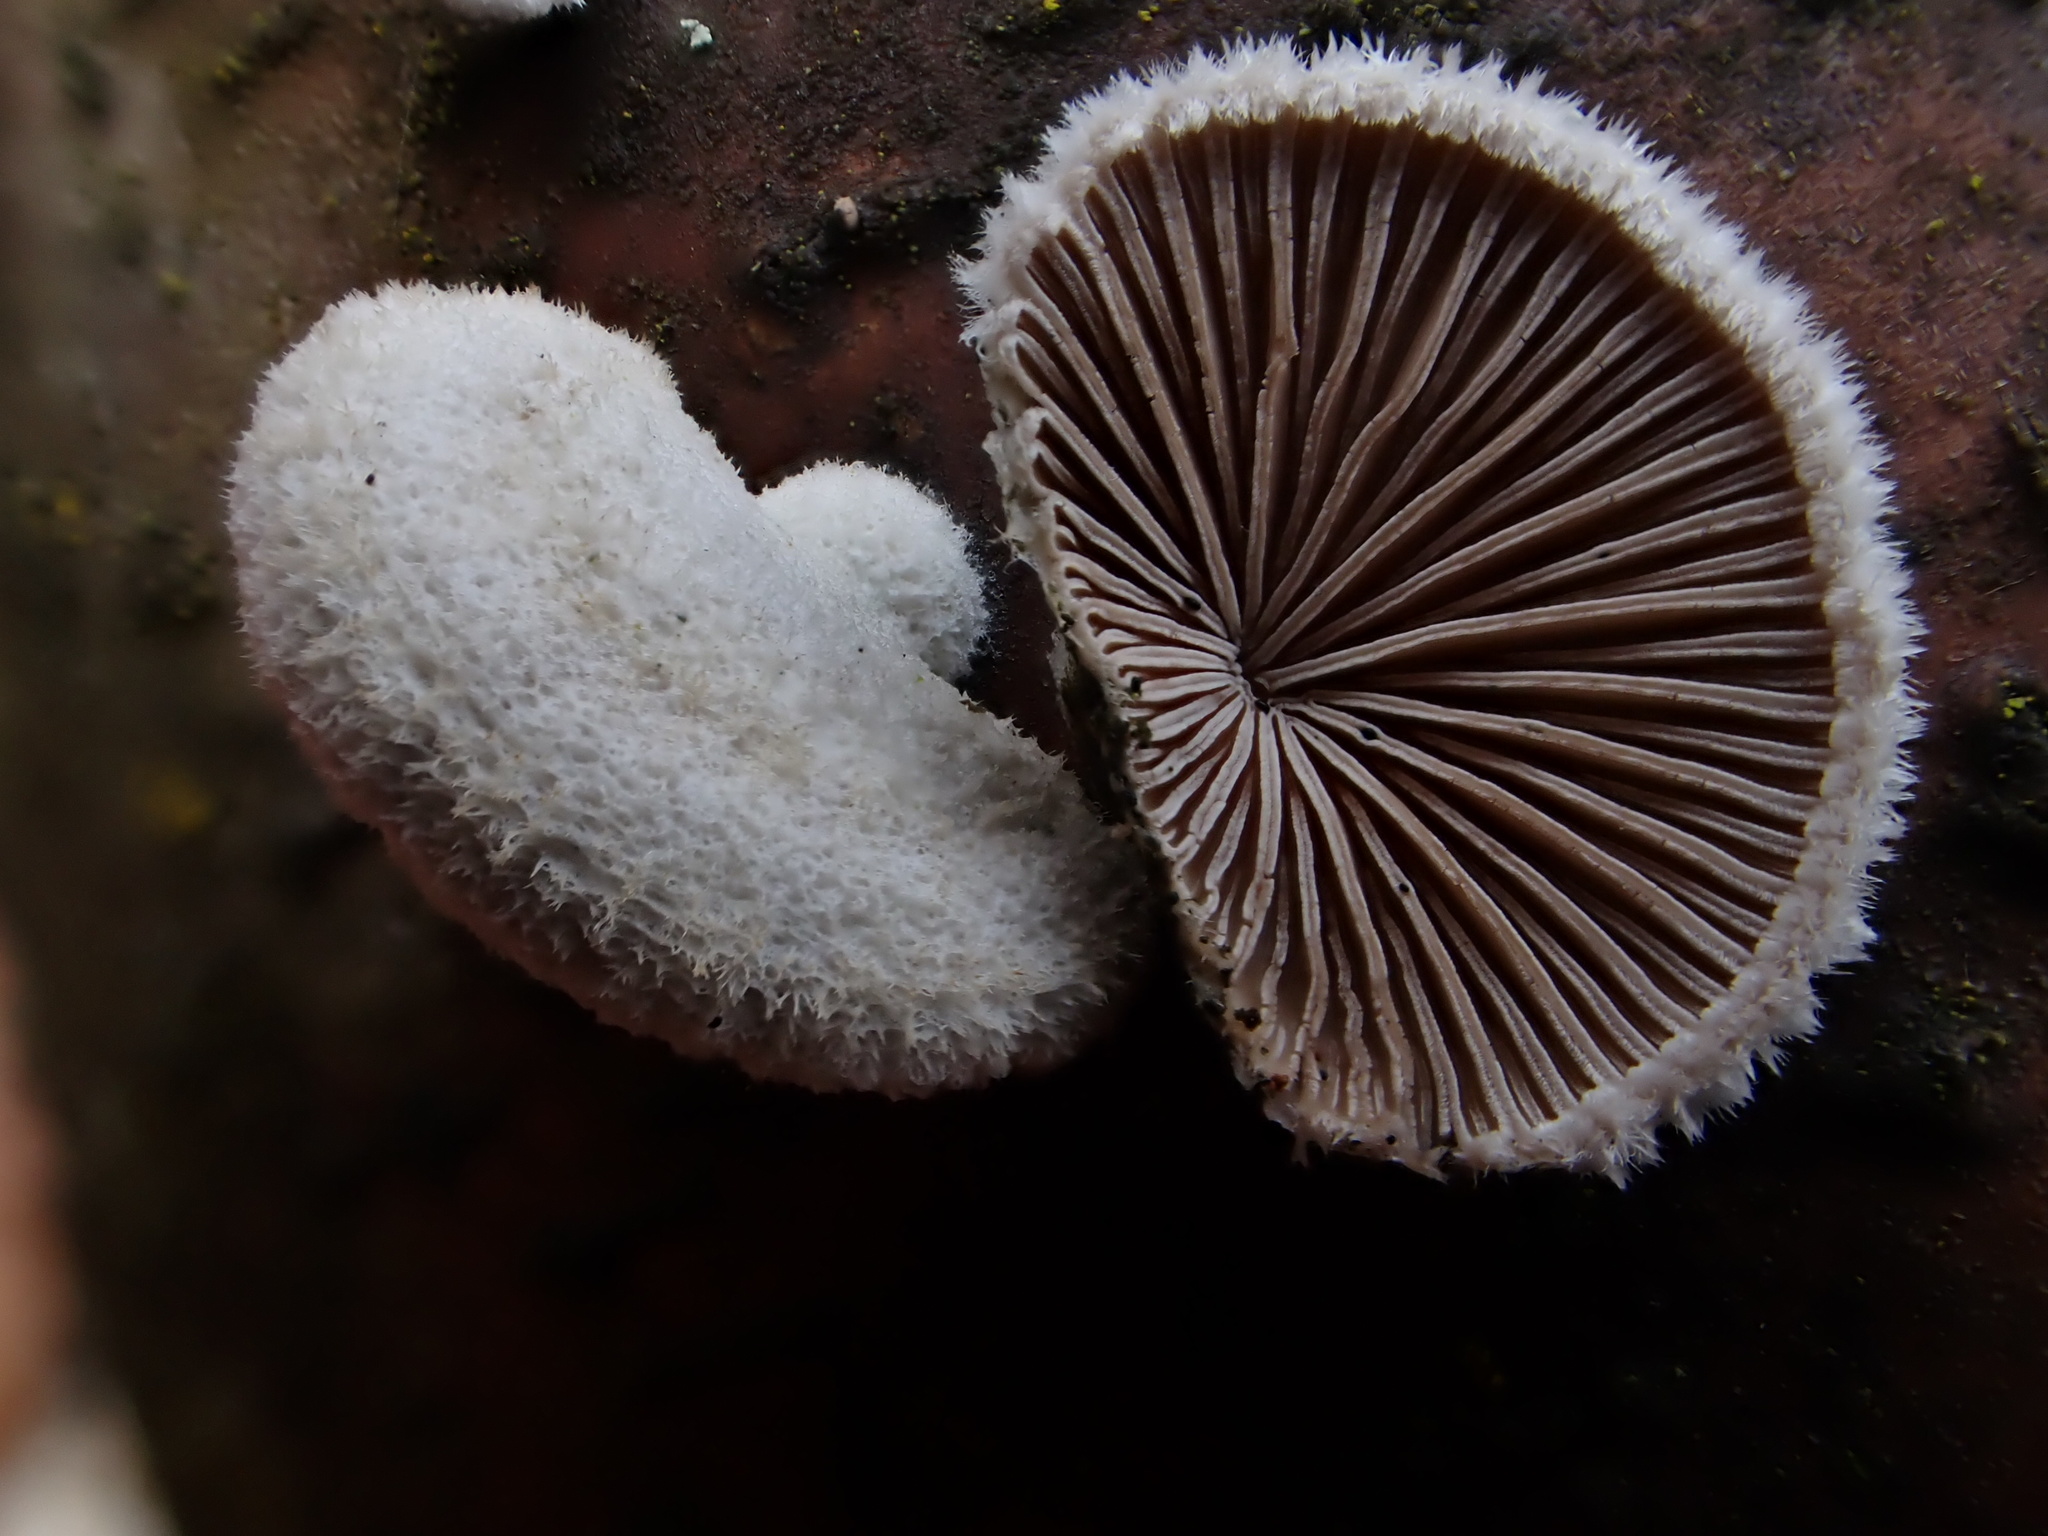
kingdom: Fungi
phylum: Basidiomycota
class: Agaricomycetes
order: Agaricales
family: Schizophyllaceae
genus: Schizophyllum
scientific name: Schizophyllum commune
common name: Common porecrust
